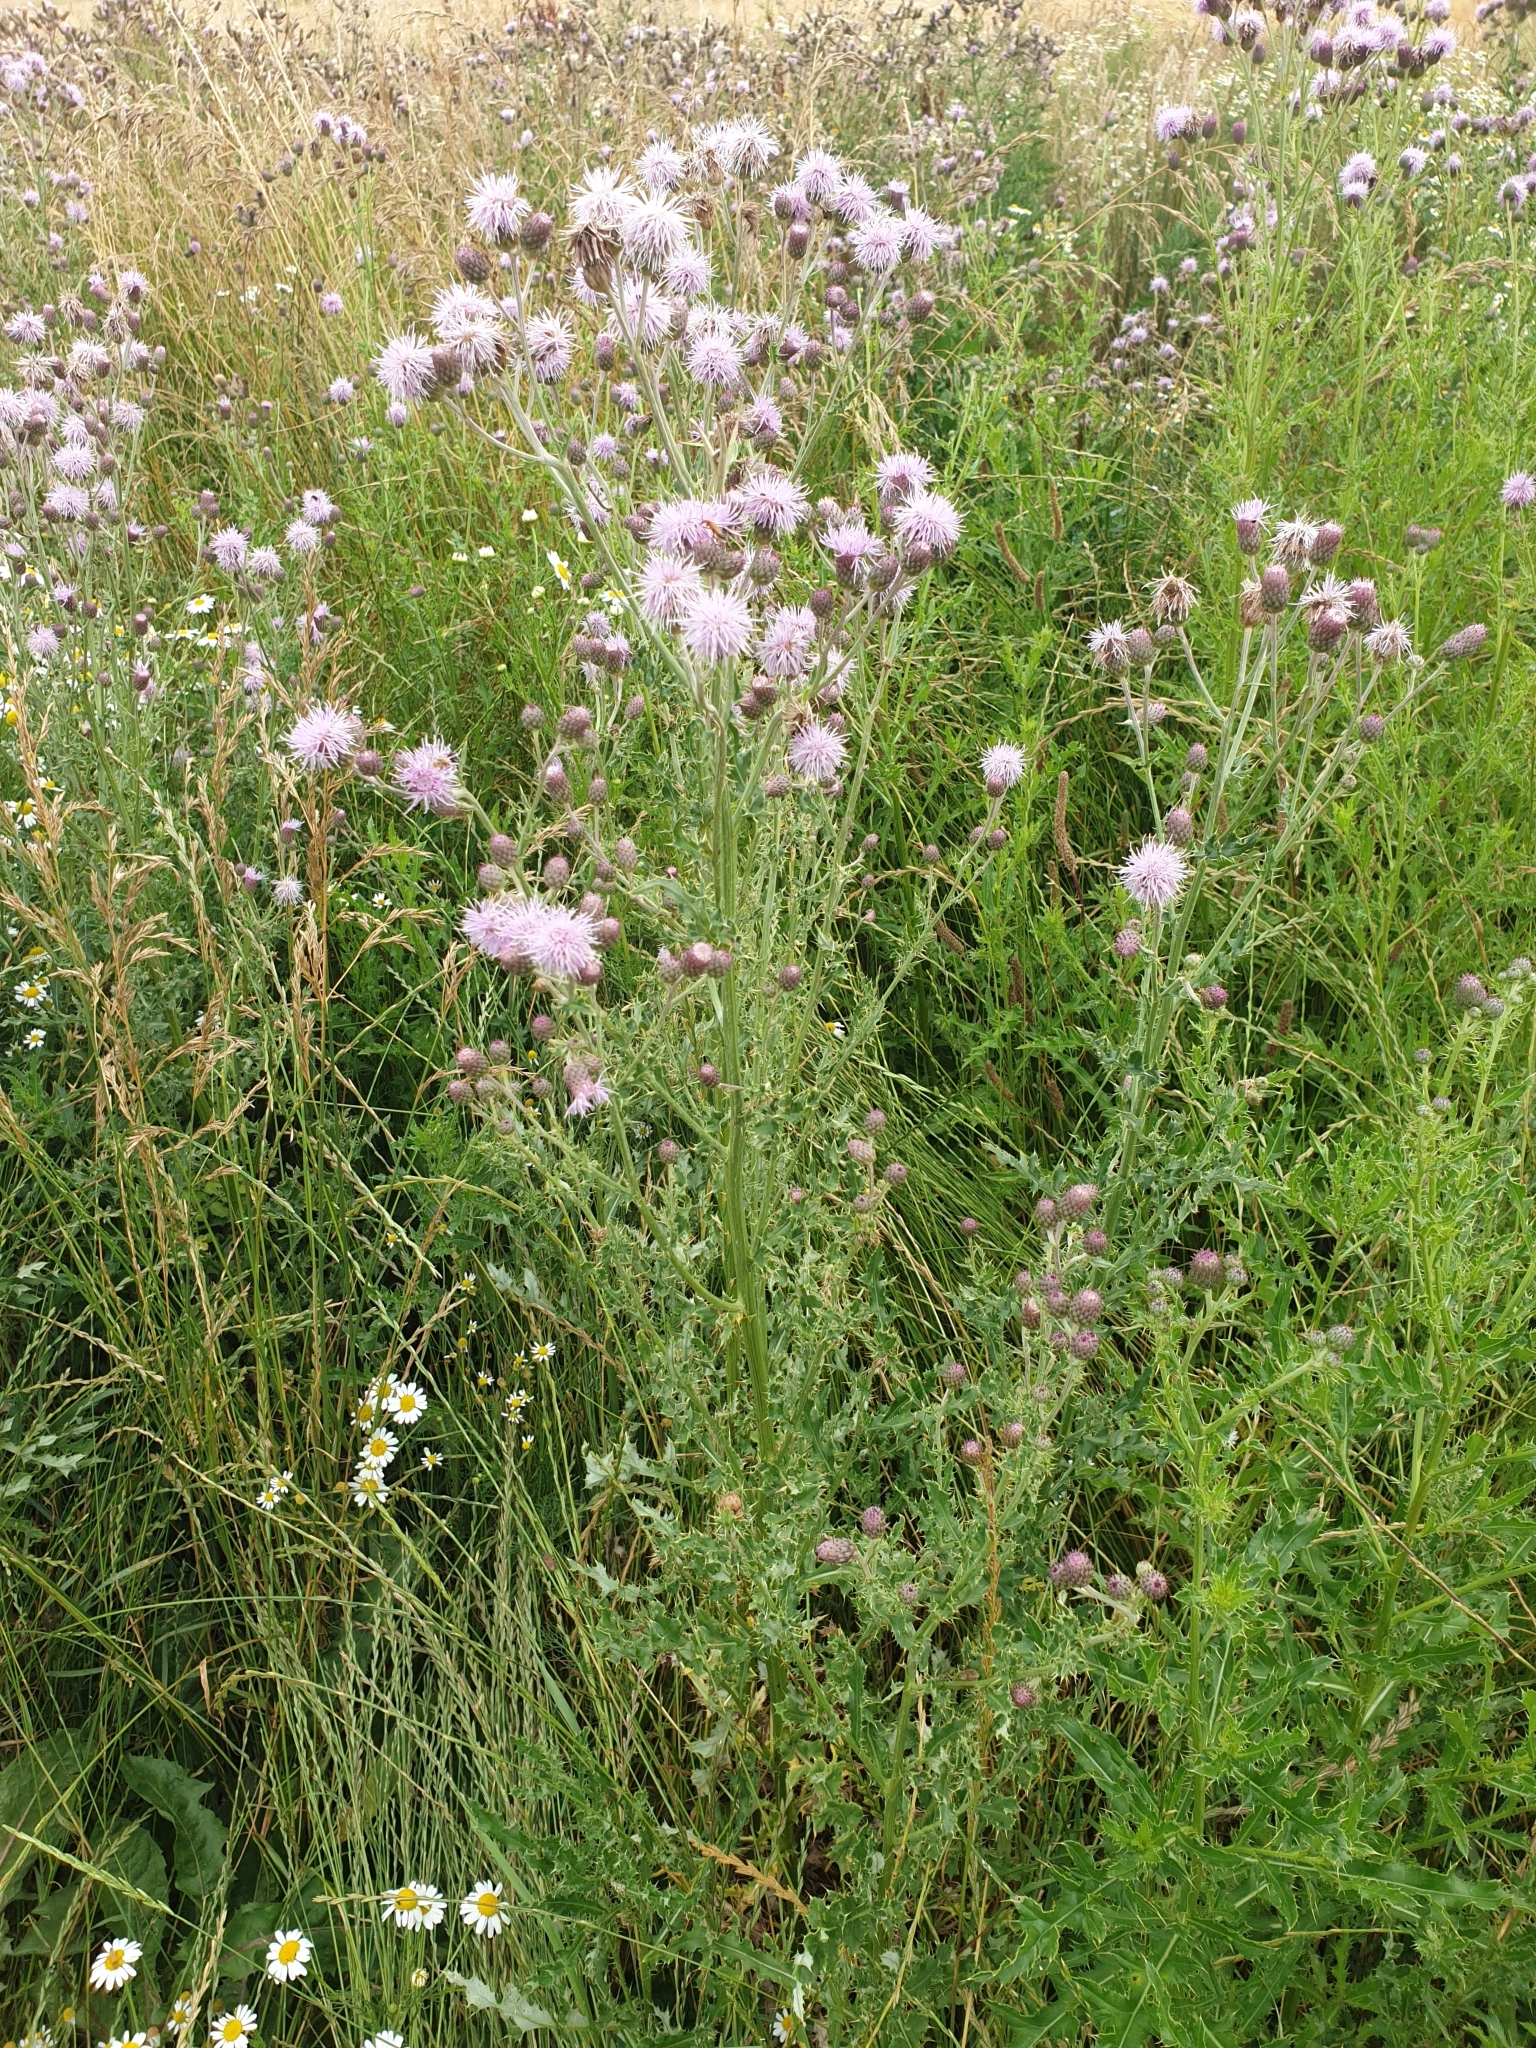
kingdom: Plantae
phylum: Tracheophyta
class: Magnoliopsida
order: Asterales
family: Asteraceae
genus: Cirsium
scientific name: Cirsium arvense
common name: Creeping thistle
